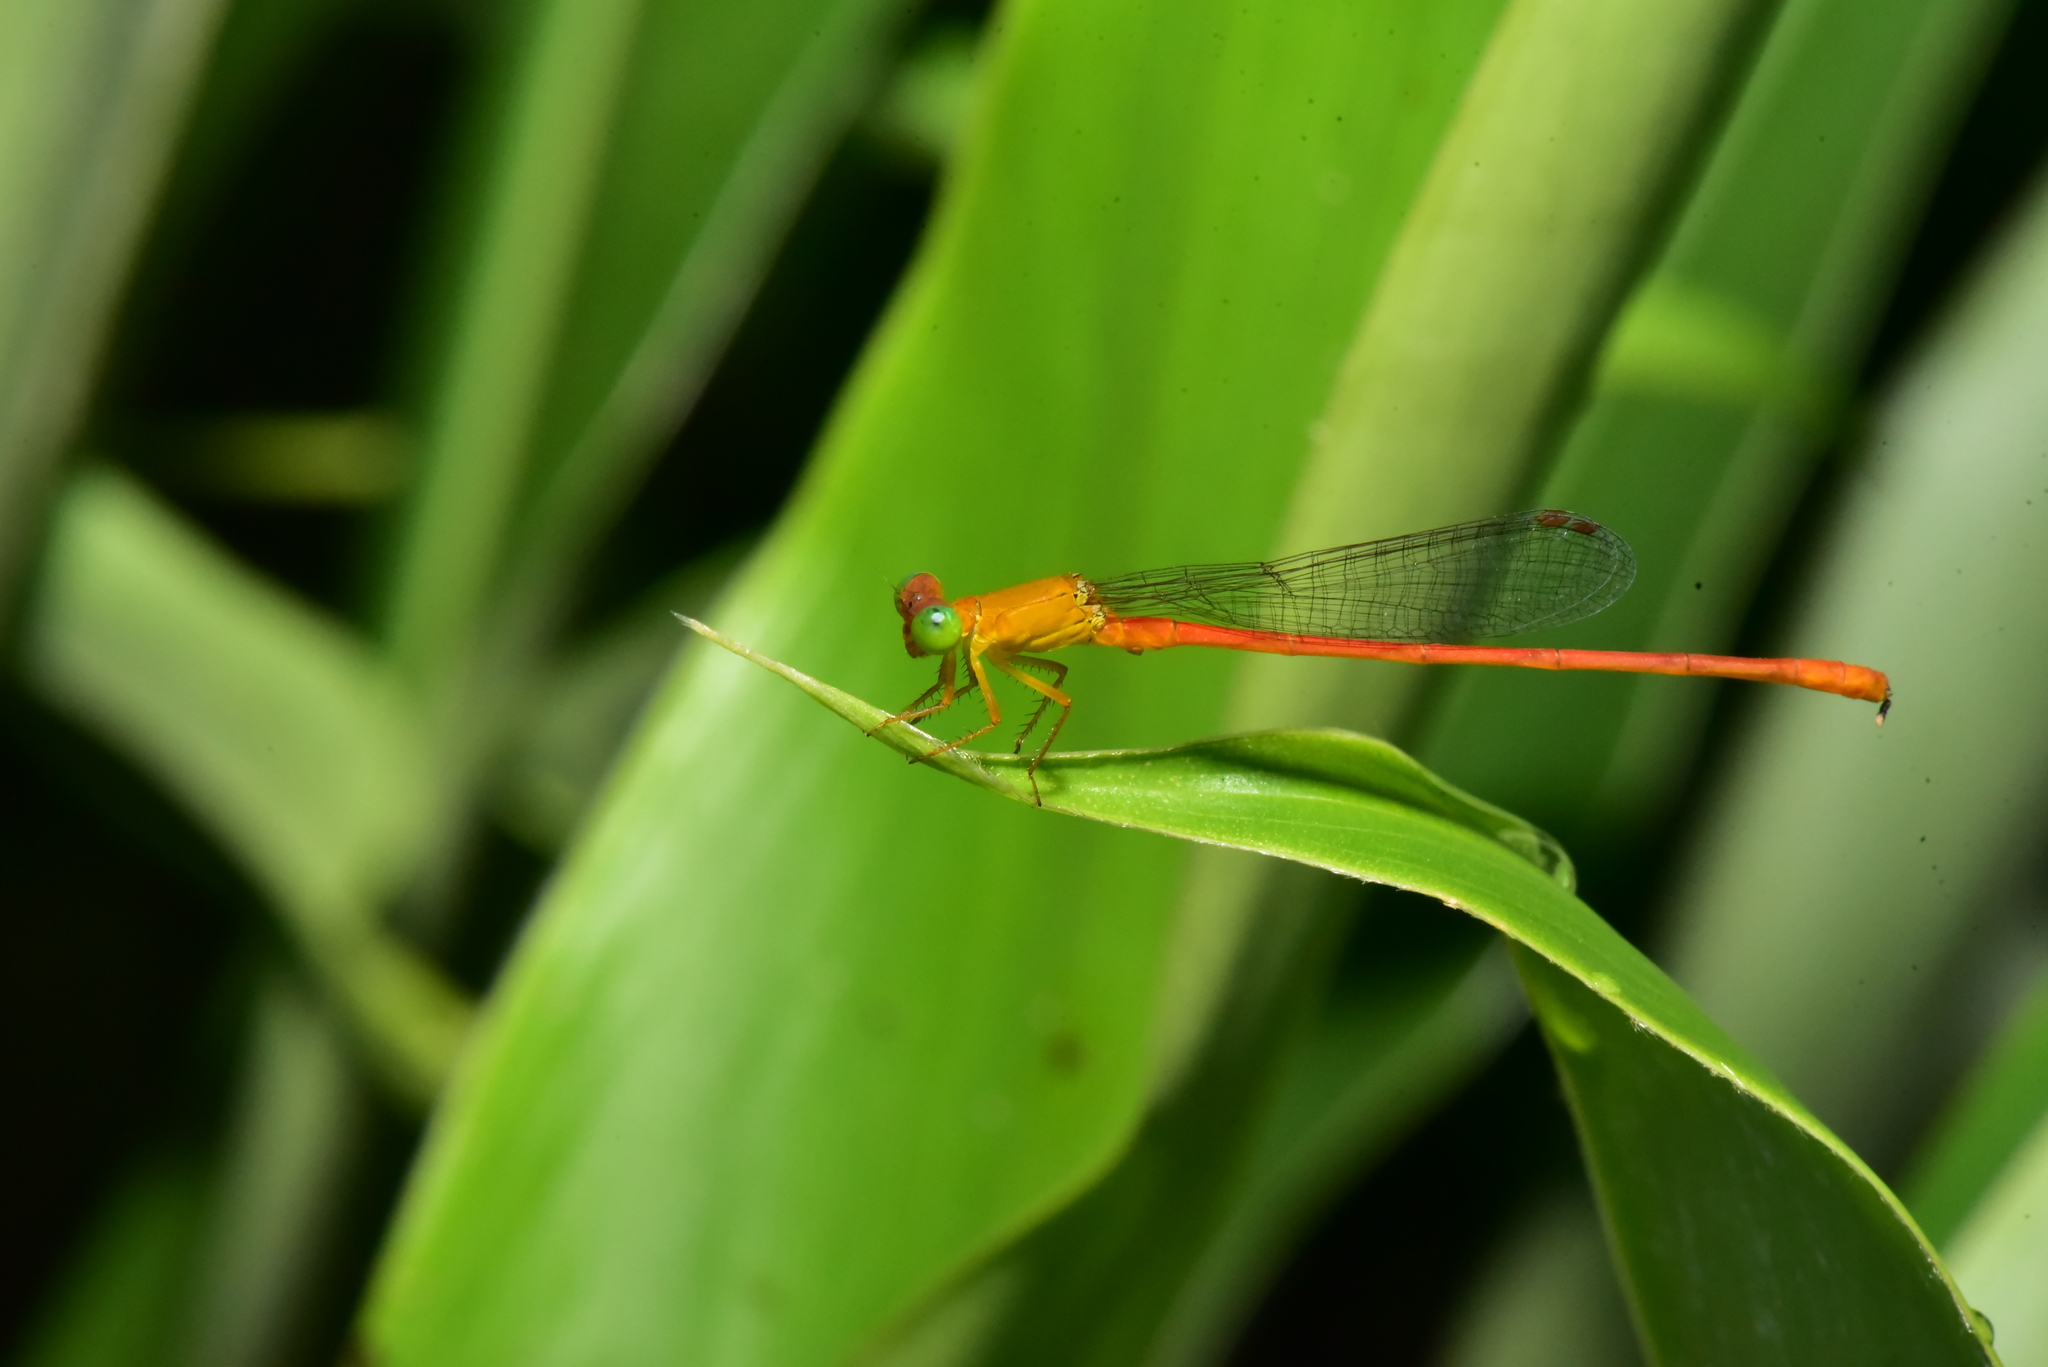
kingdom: Animalia
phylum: Arthropoda
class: Insecta
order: Odonata
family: Coenagrionidae
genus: Ceriagrion
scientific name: Ceriagrion auranticum
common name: Orange-tailed sprite
